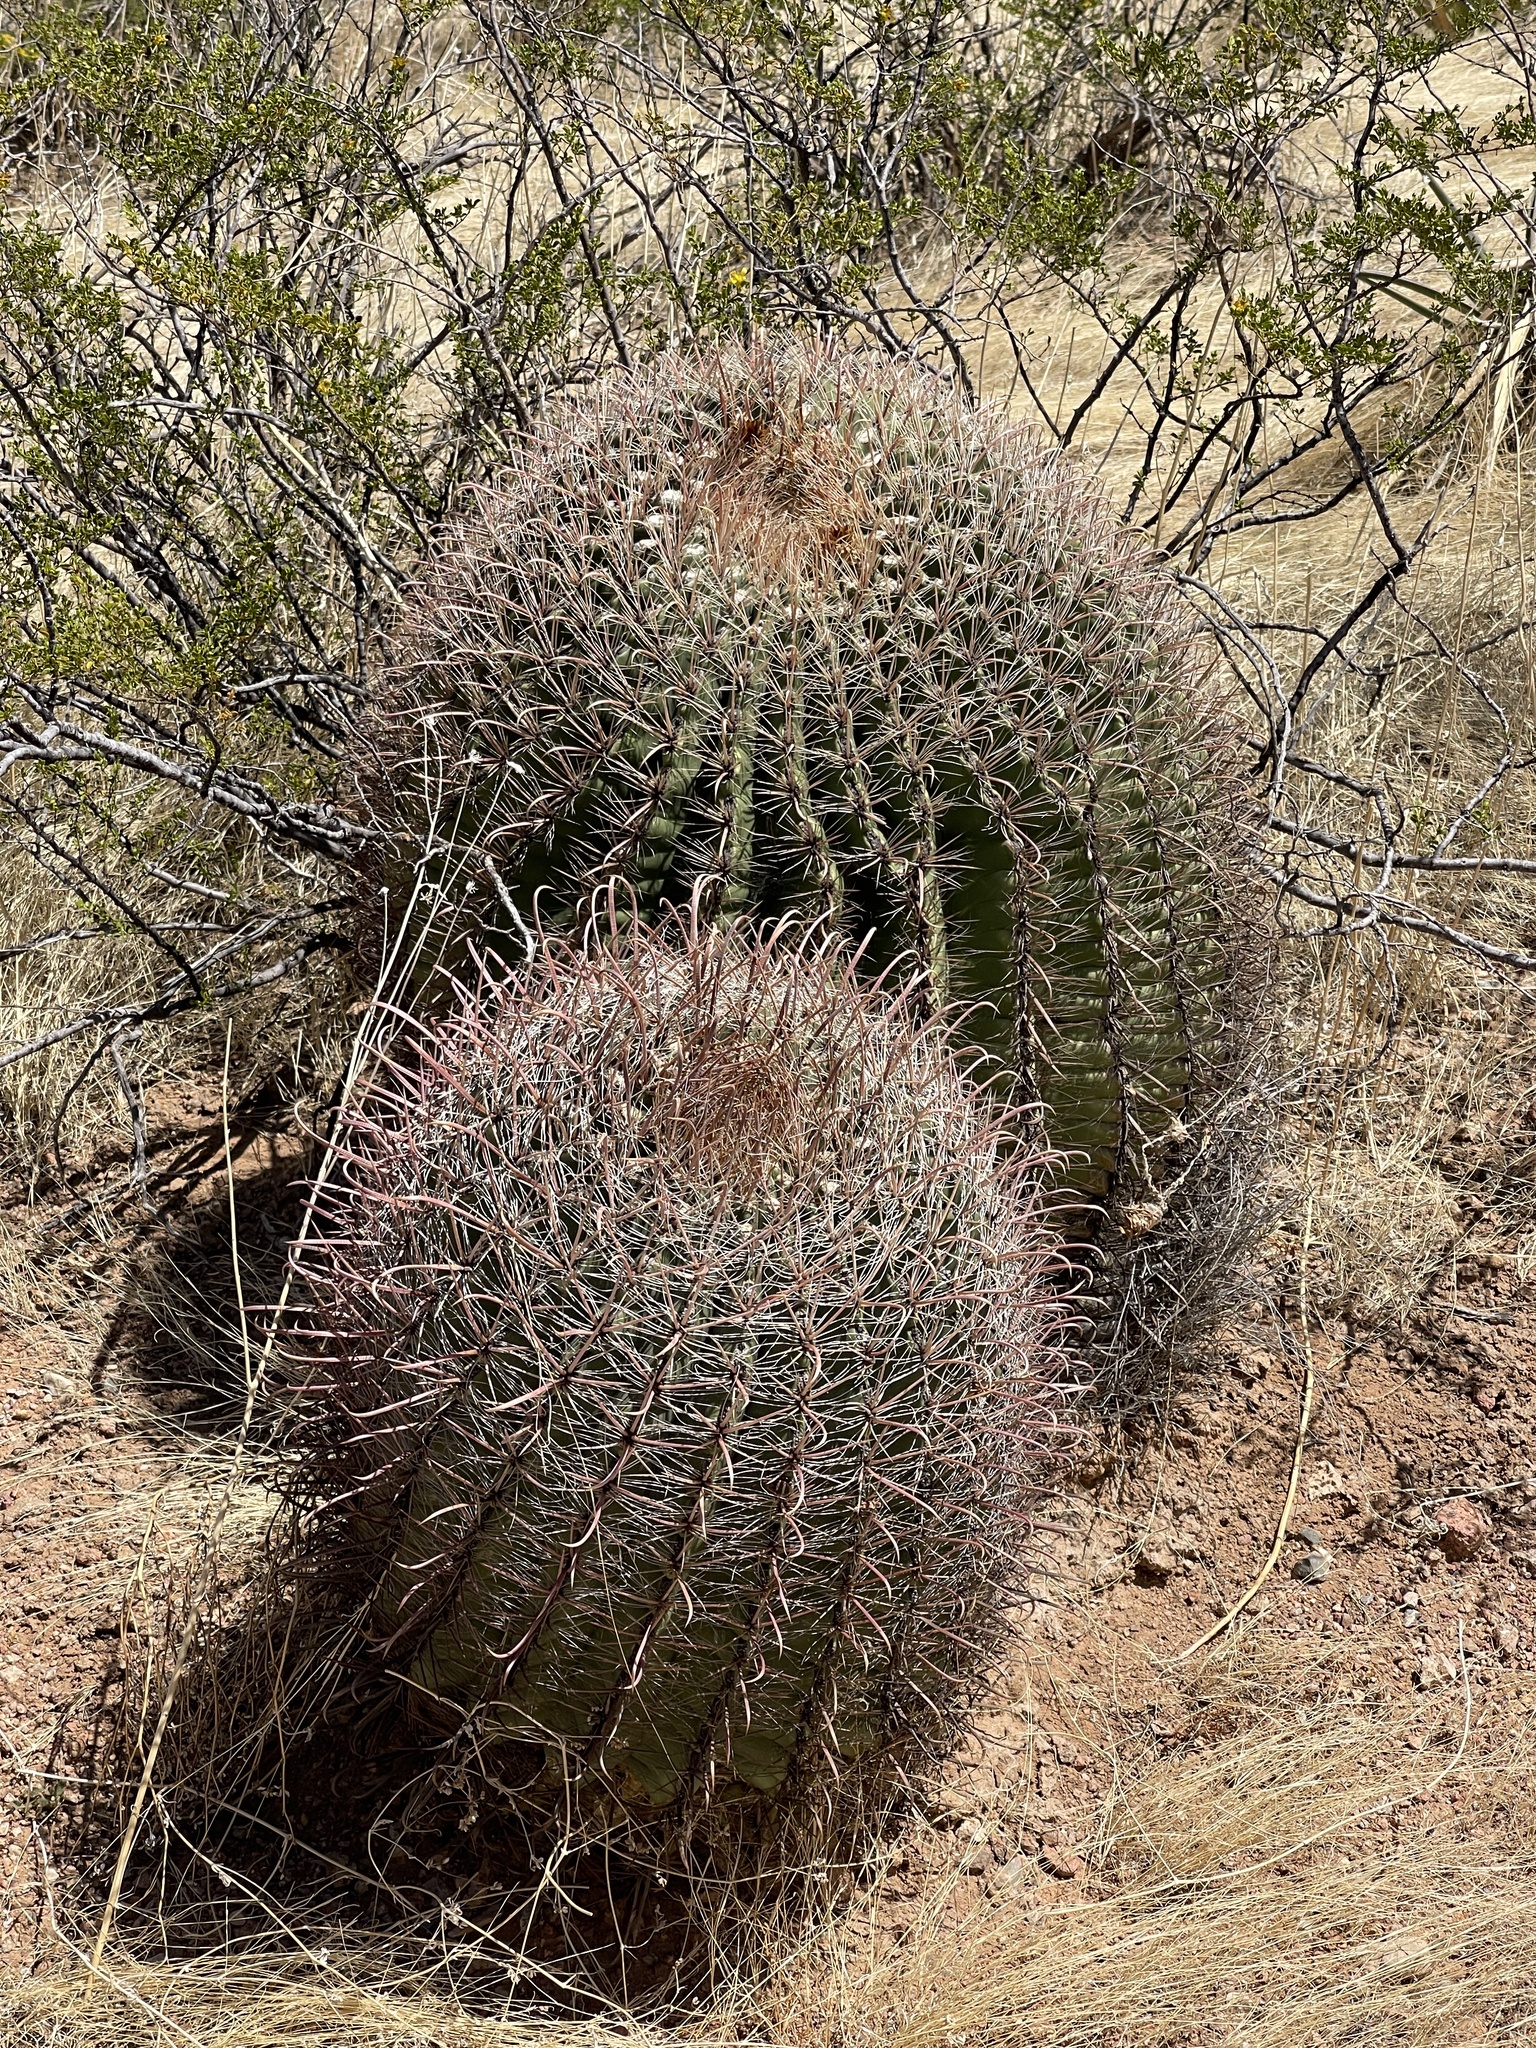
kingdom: Plantae
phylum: Tracheophyta
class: Magnoliopsida
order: Caryophyllales
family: Cactaceae
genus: Ferocactus
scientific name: Ferocactus wislizeni
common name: Candy barrel cactus
